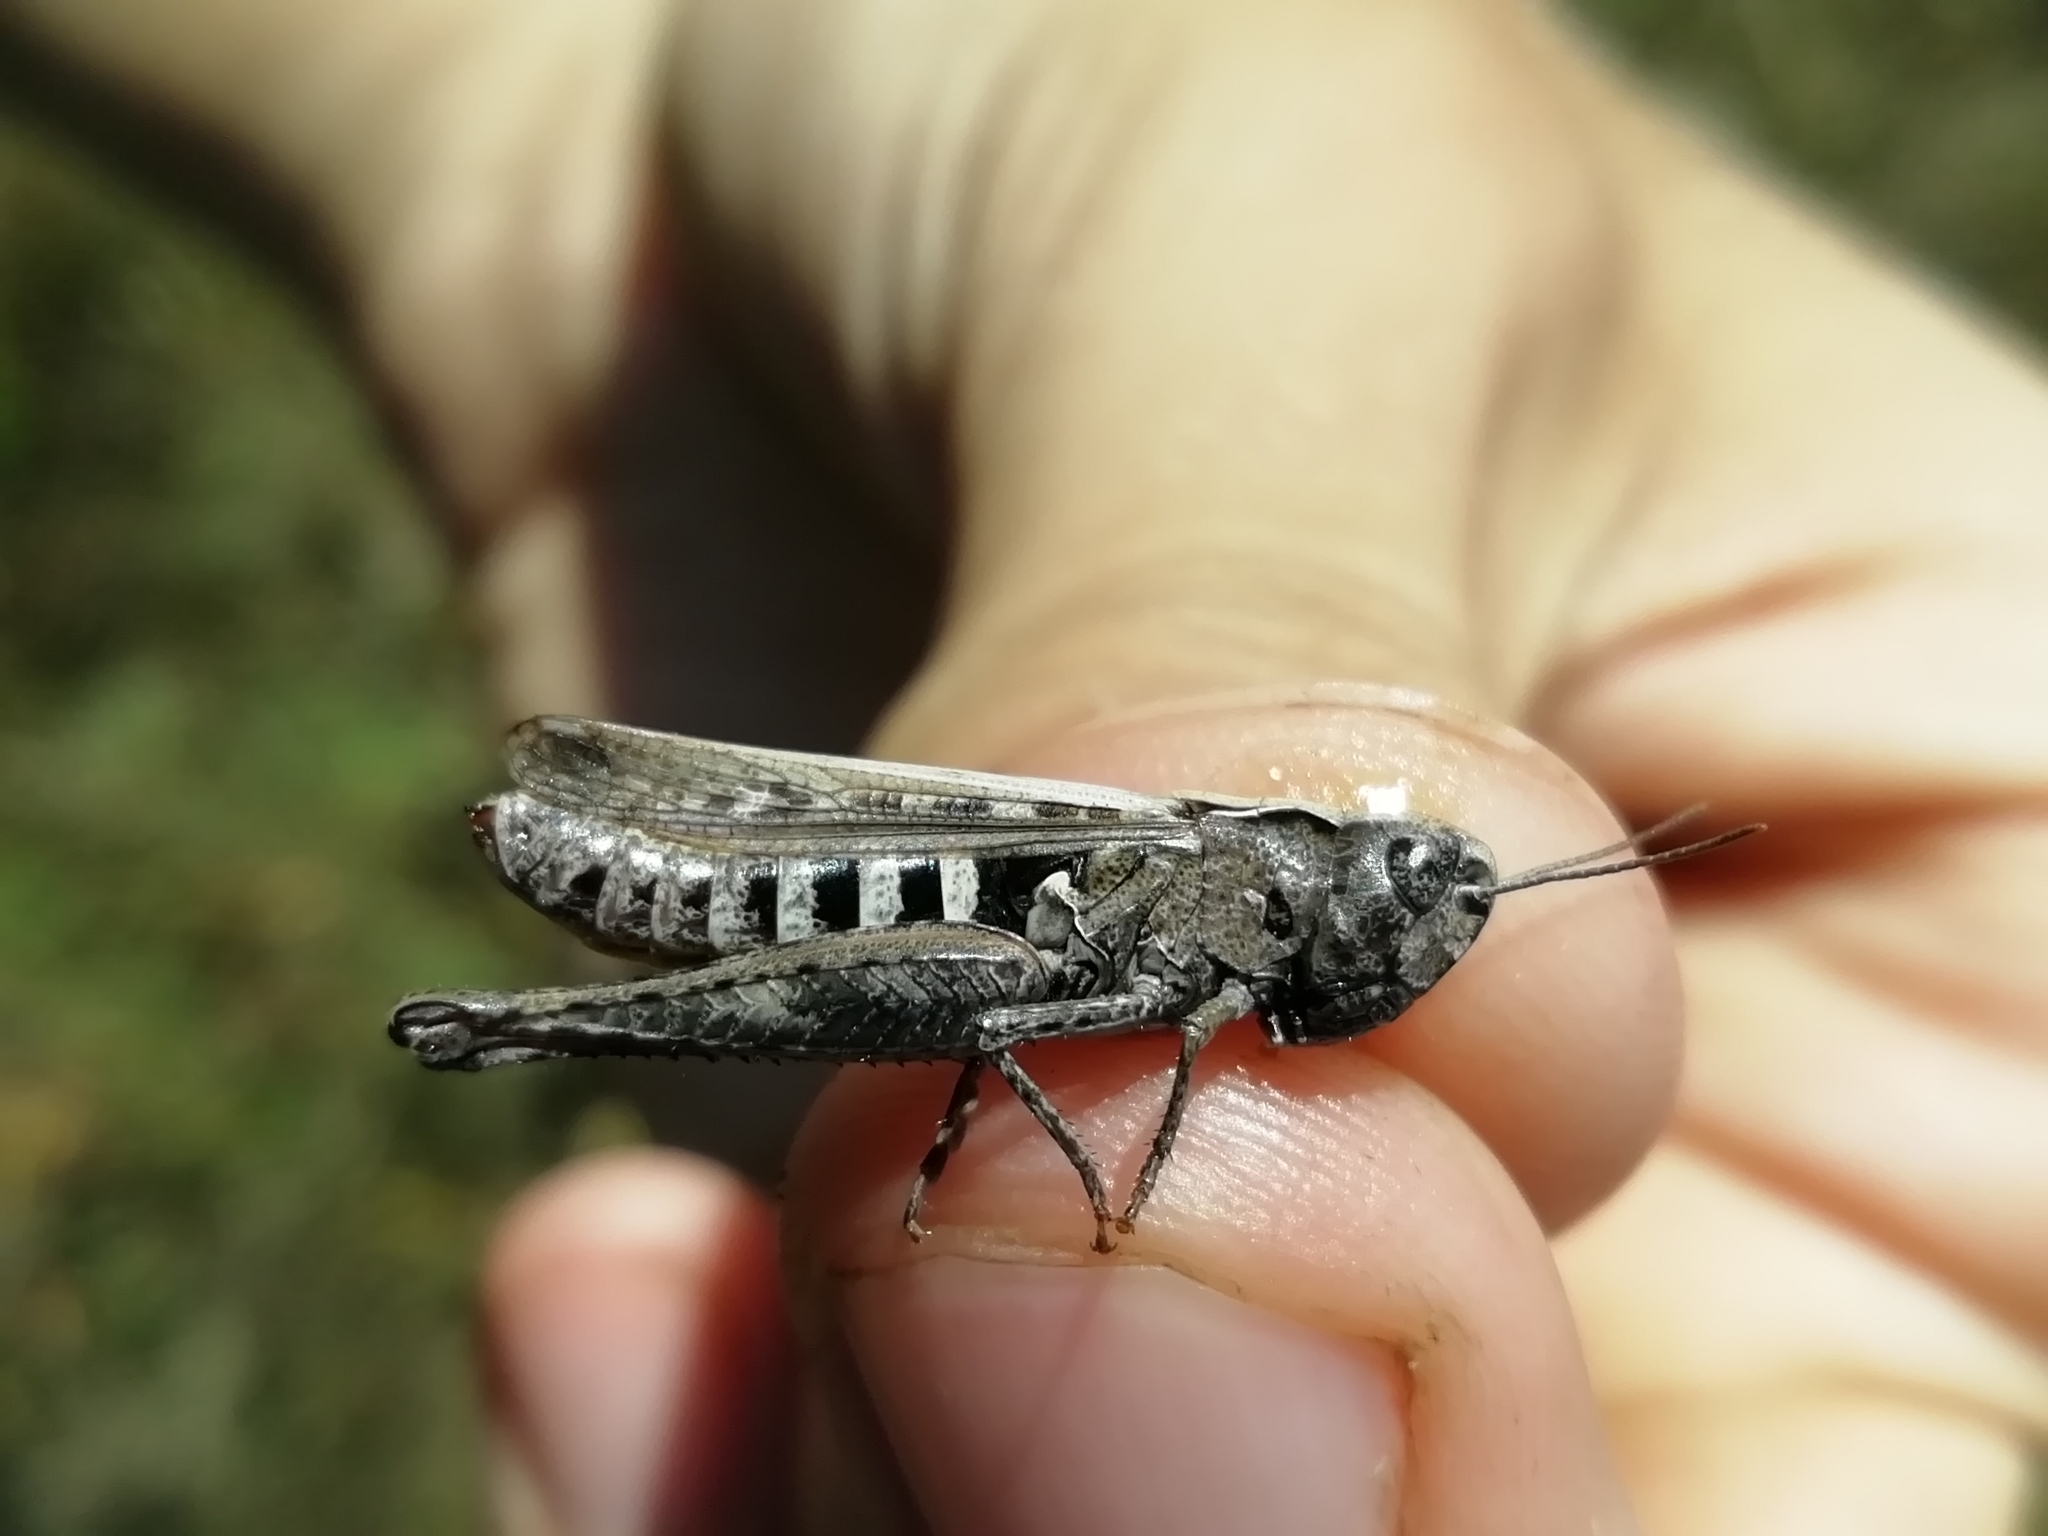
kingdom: Animalia
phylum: Arthropoda
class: Insecta
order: Orthoptera
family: Acrididae
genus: Omocestus
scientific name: Omocestus haemorrhoidalis
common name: Orange-tipped grasshopper
